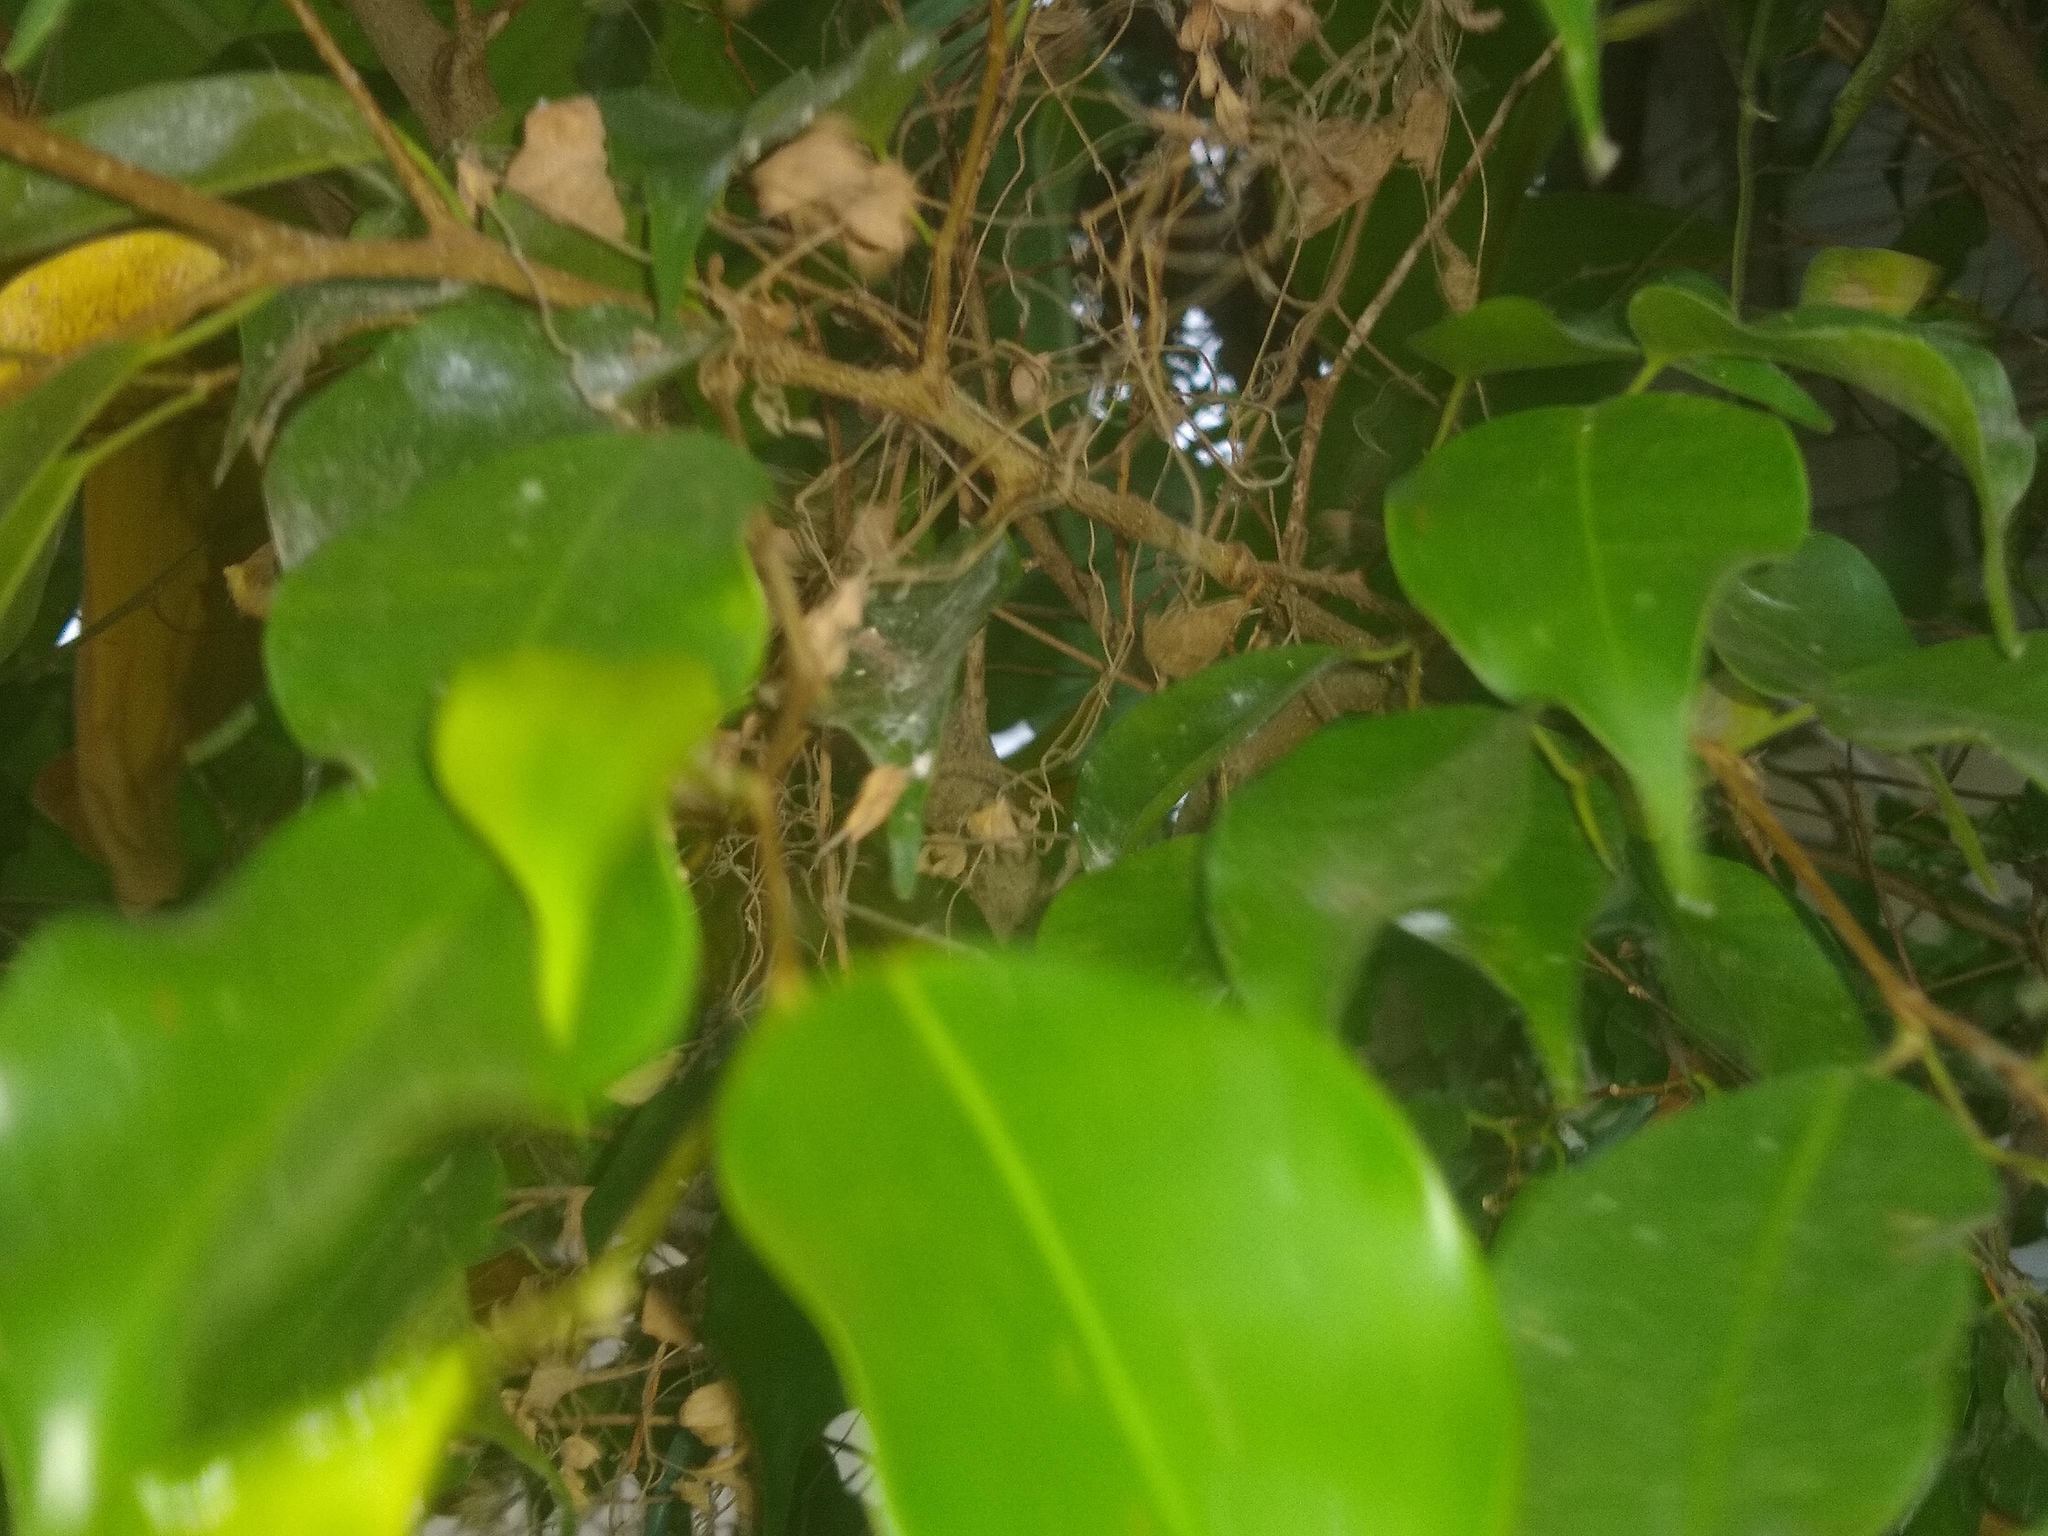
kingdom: Plantae
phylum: Tracheophyta
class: Magnoliopsida
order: Rosales
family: Moraceae
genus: Ficus
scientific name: Ficus benjamina
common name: Weeping fig
